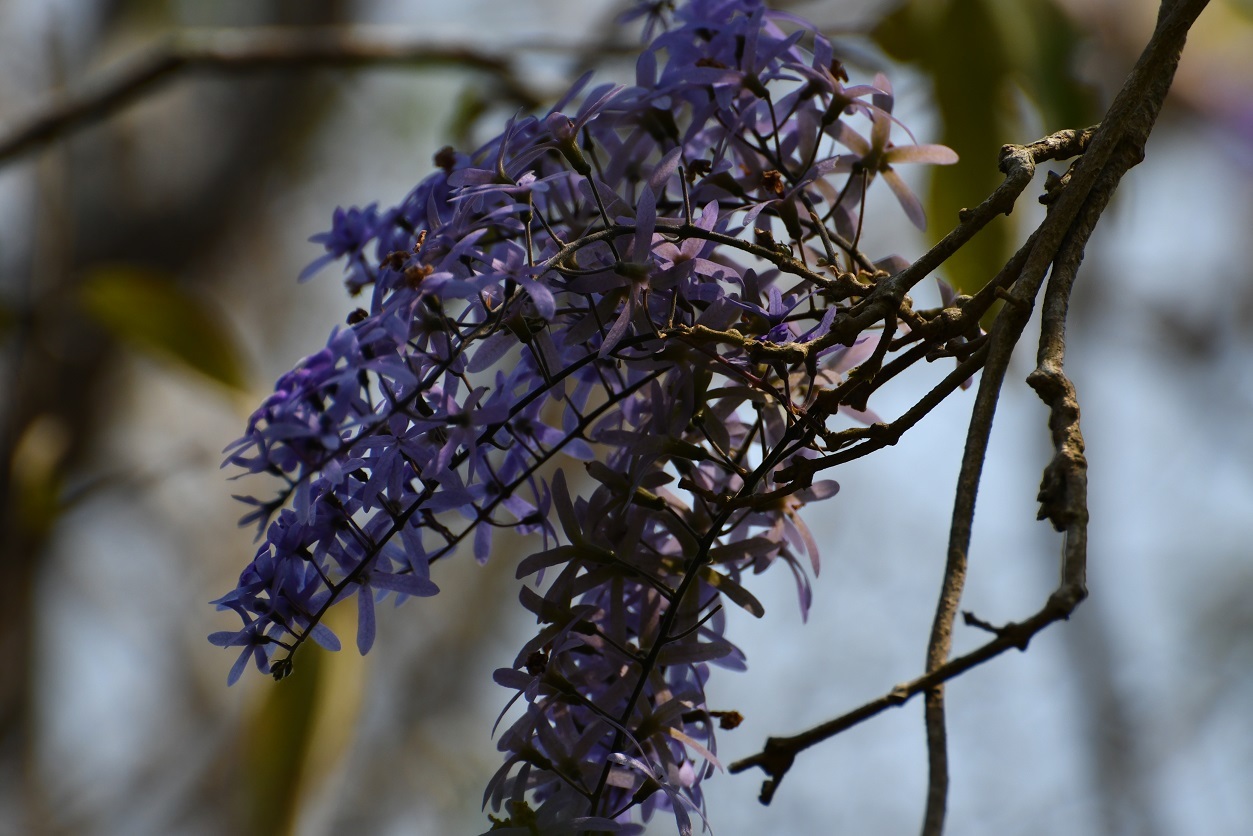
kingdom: Plantae
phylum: Tracheophyta
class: Magnoliopsida
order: Lamiales
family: Verbenaceae
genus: Petrea
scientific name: Petrea volubilis
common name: Queen's-wreath
